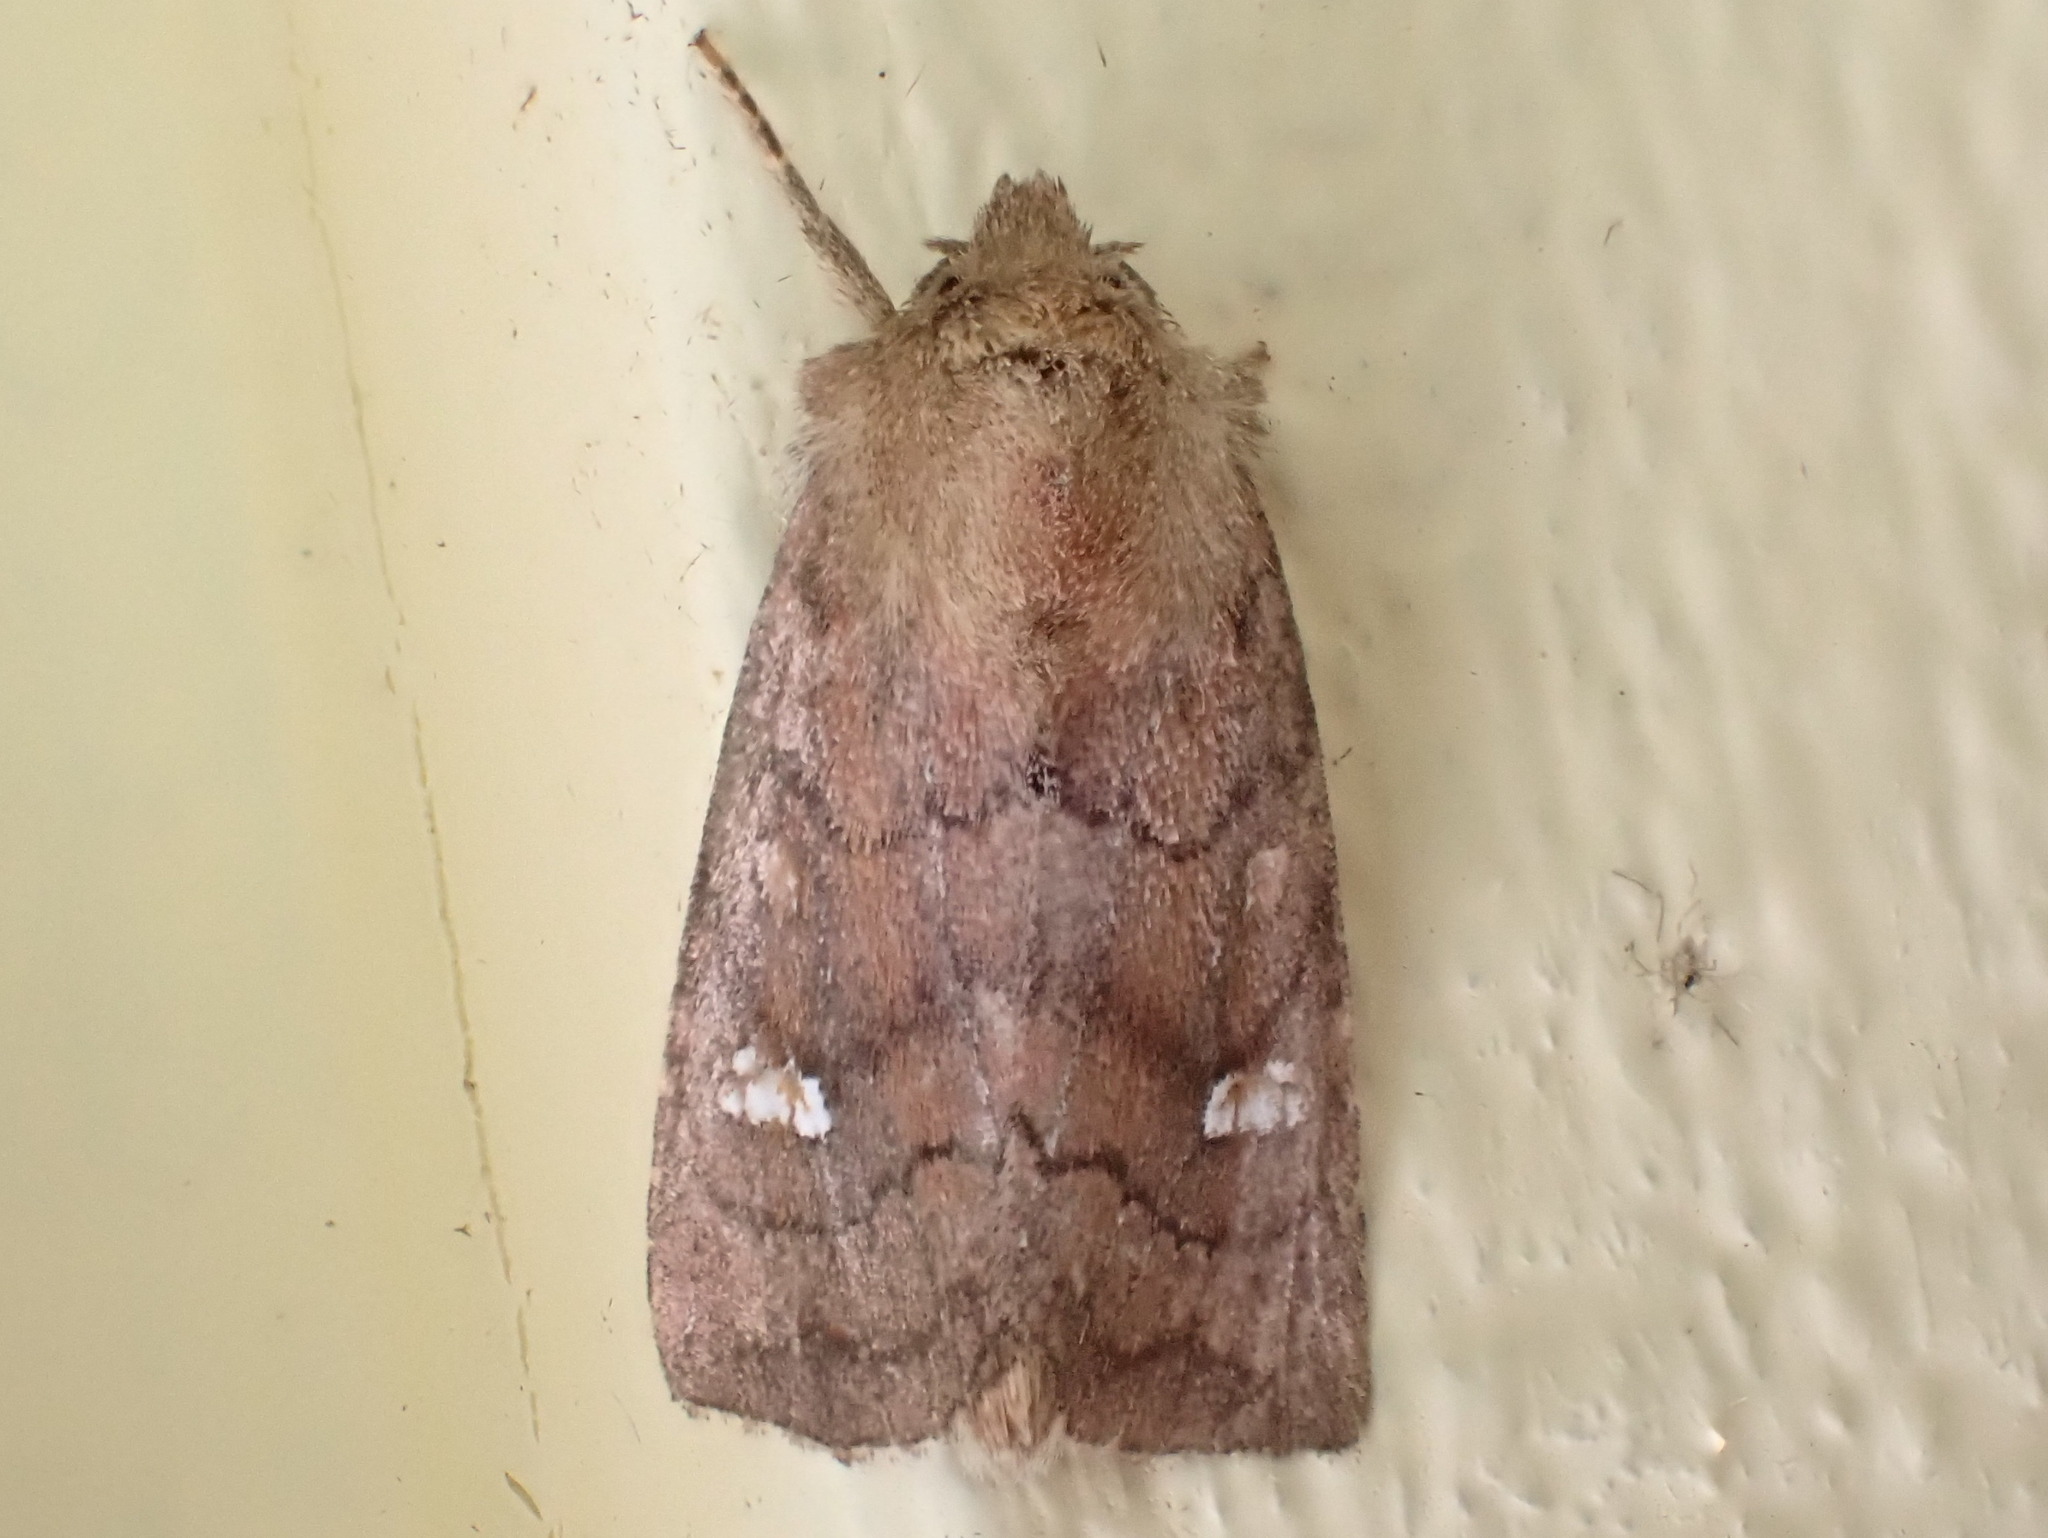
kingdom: Animalia
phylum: Arthropoda
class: Insecta
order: Lepidoptera
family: Noctuidae
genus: Tricholita
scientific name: Tricholita signata
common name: Signate quaker
